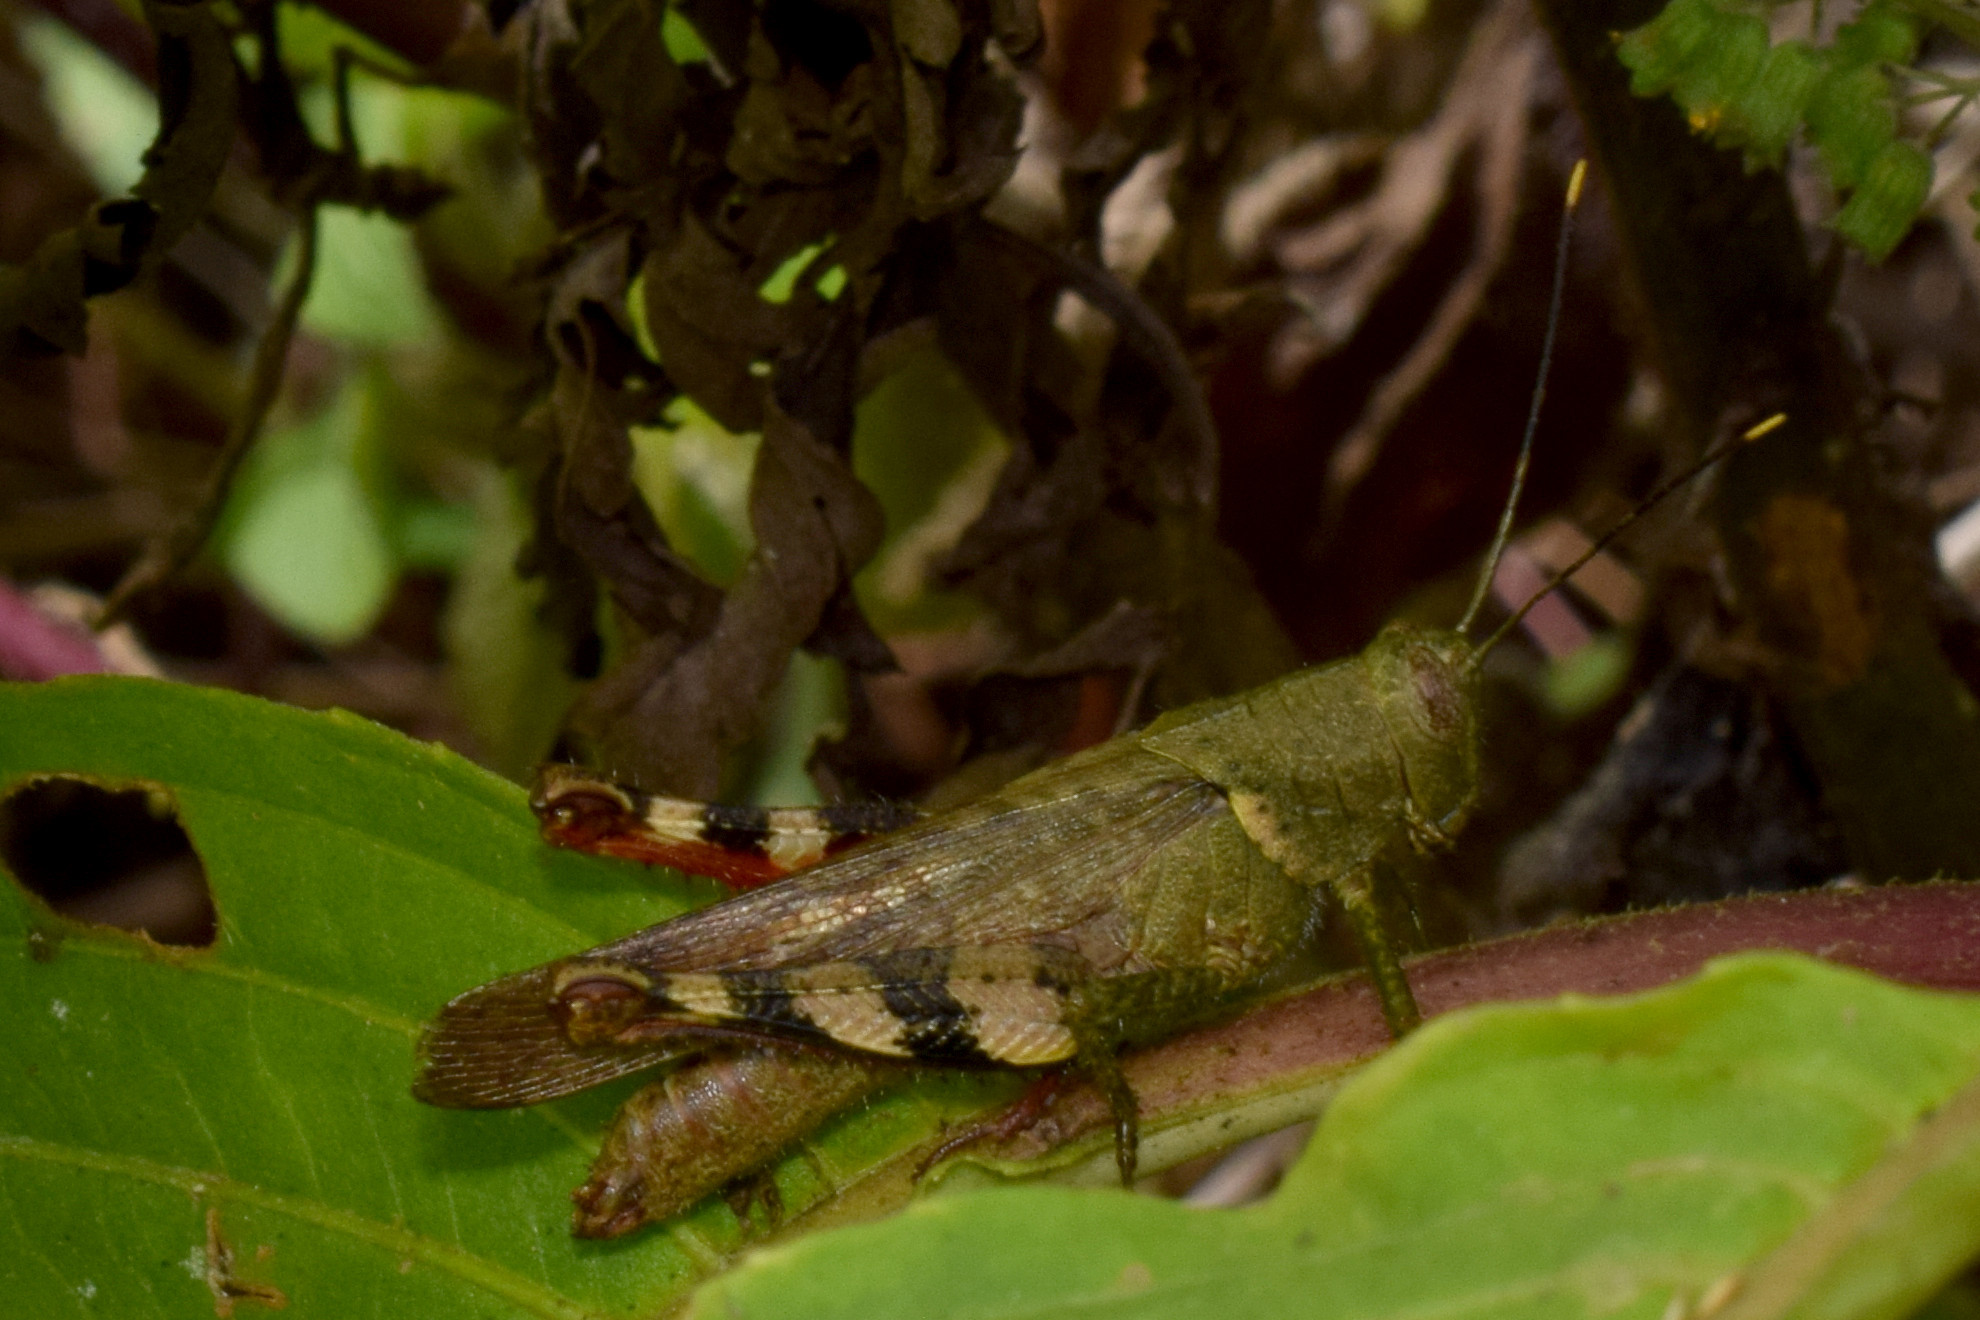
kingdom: Animalia
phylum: Arthropoda
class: Insecta
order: Orthoptera
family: Acrididae
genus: Apalacris
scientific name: Apalacris varicornis
